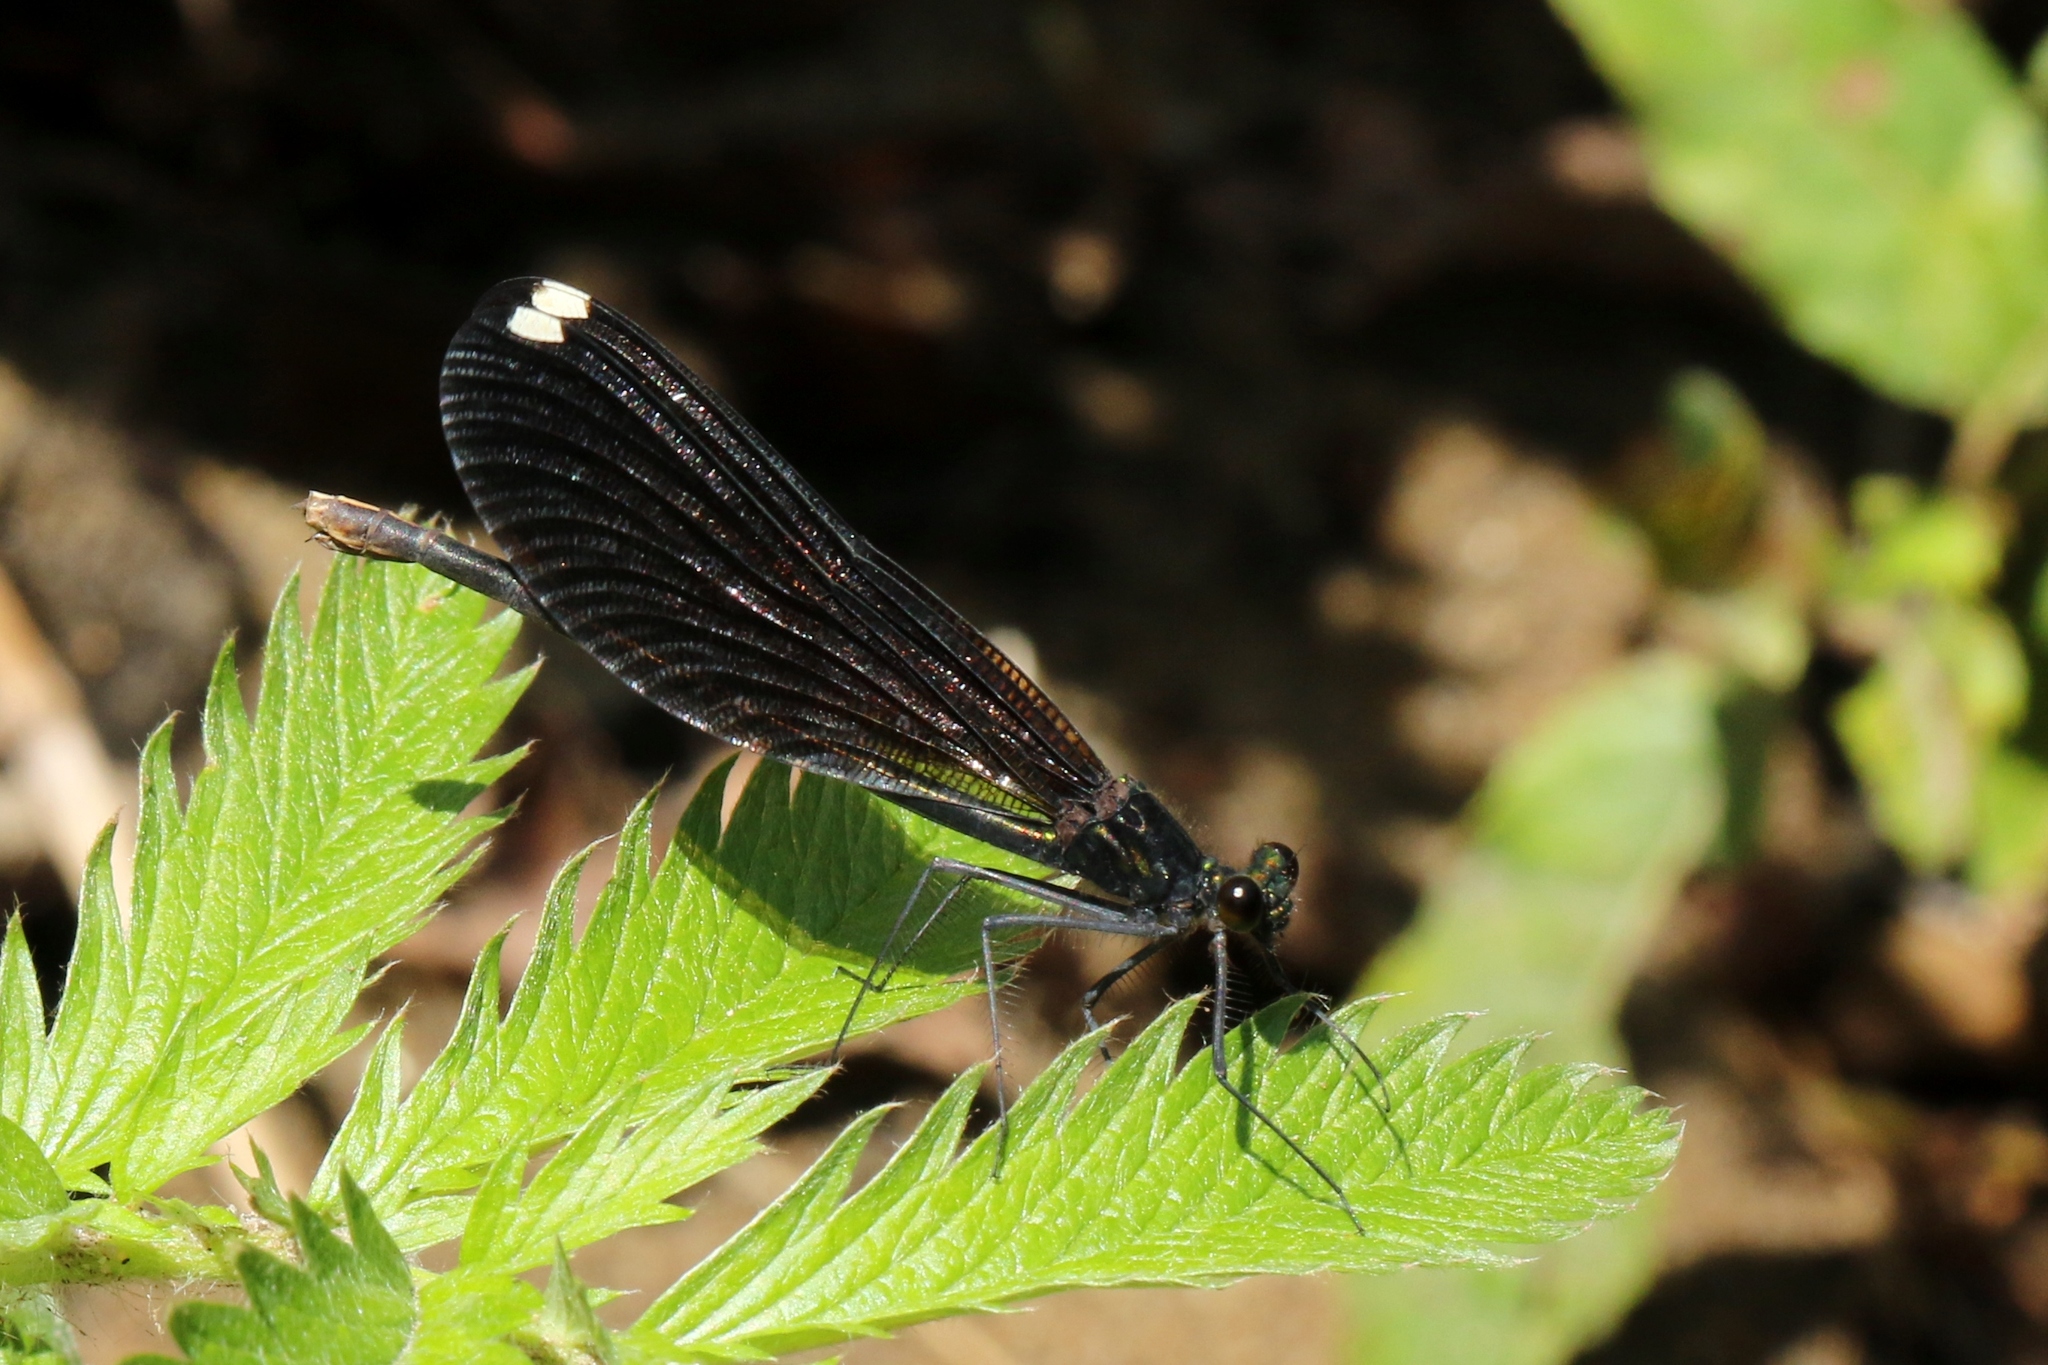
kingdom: Animalia
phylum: Arthropoda
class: Insecta
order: Odonata
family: Calopterygidae
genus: Calopteryx
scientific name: Calopteryx maculata
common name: Ebony jewelwing
